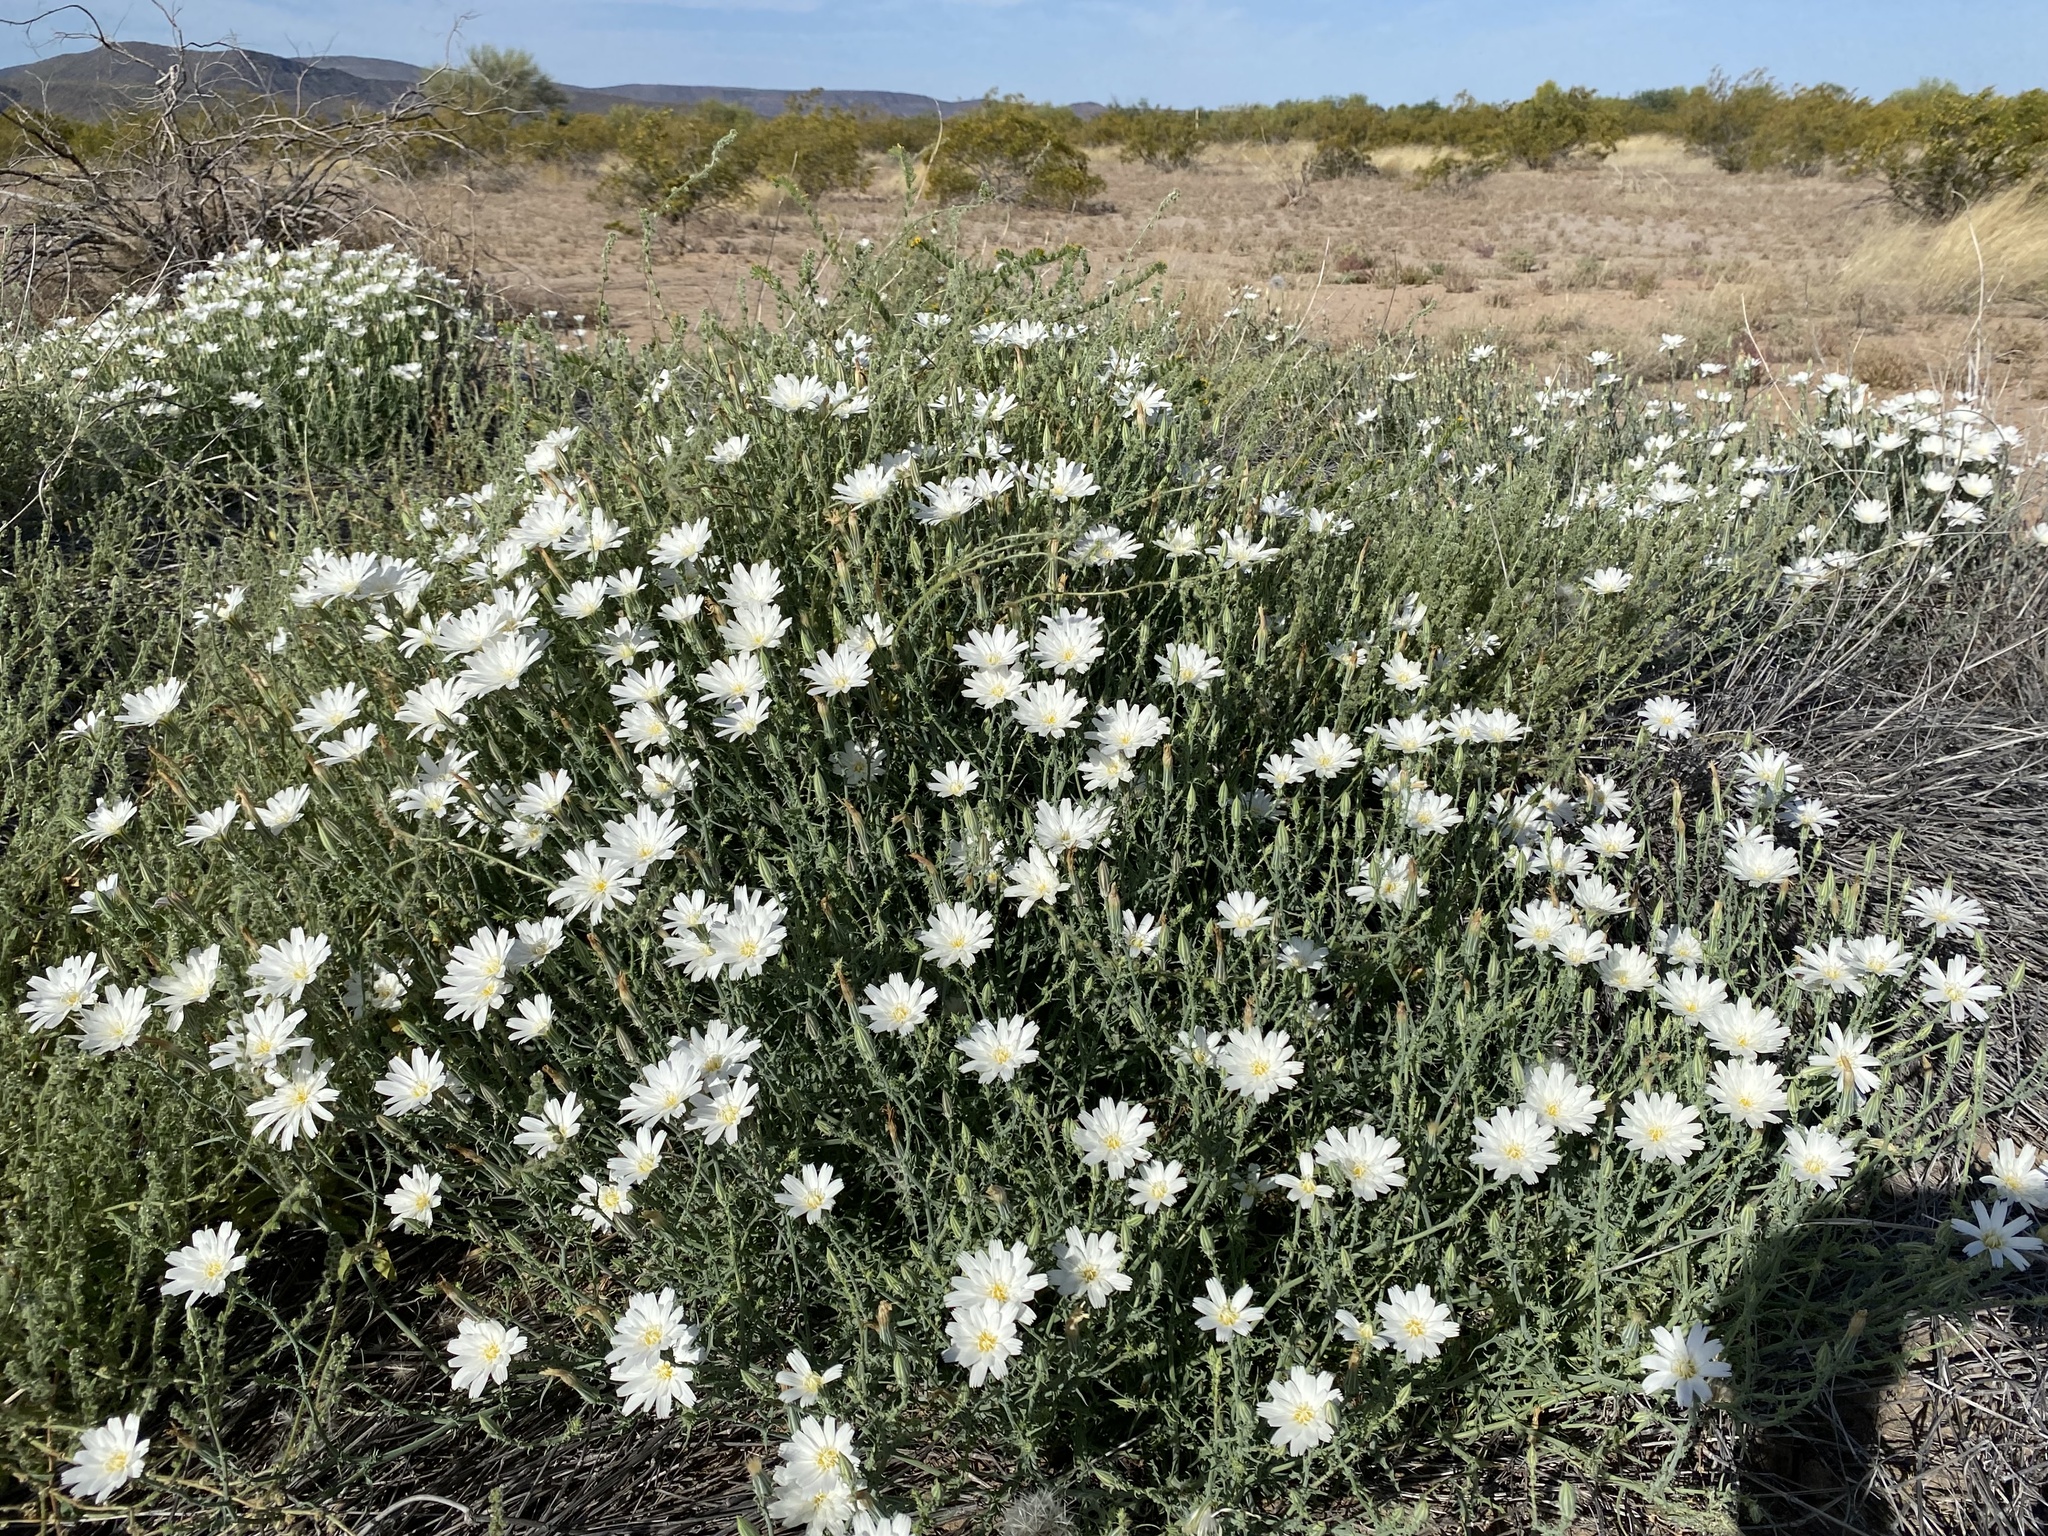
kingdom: Plantae
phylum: Tracheophyta
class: Magnoliopsida
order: Asterales
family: Asteraceae
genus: Rafinesquia
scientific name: Rafinesquia neomexicana
